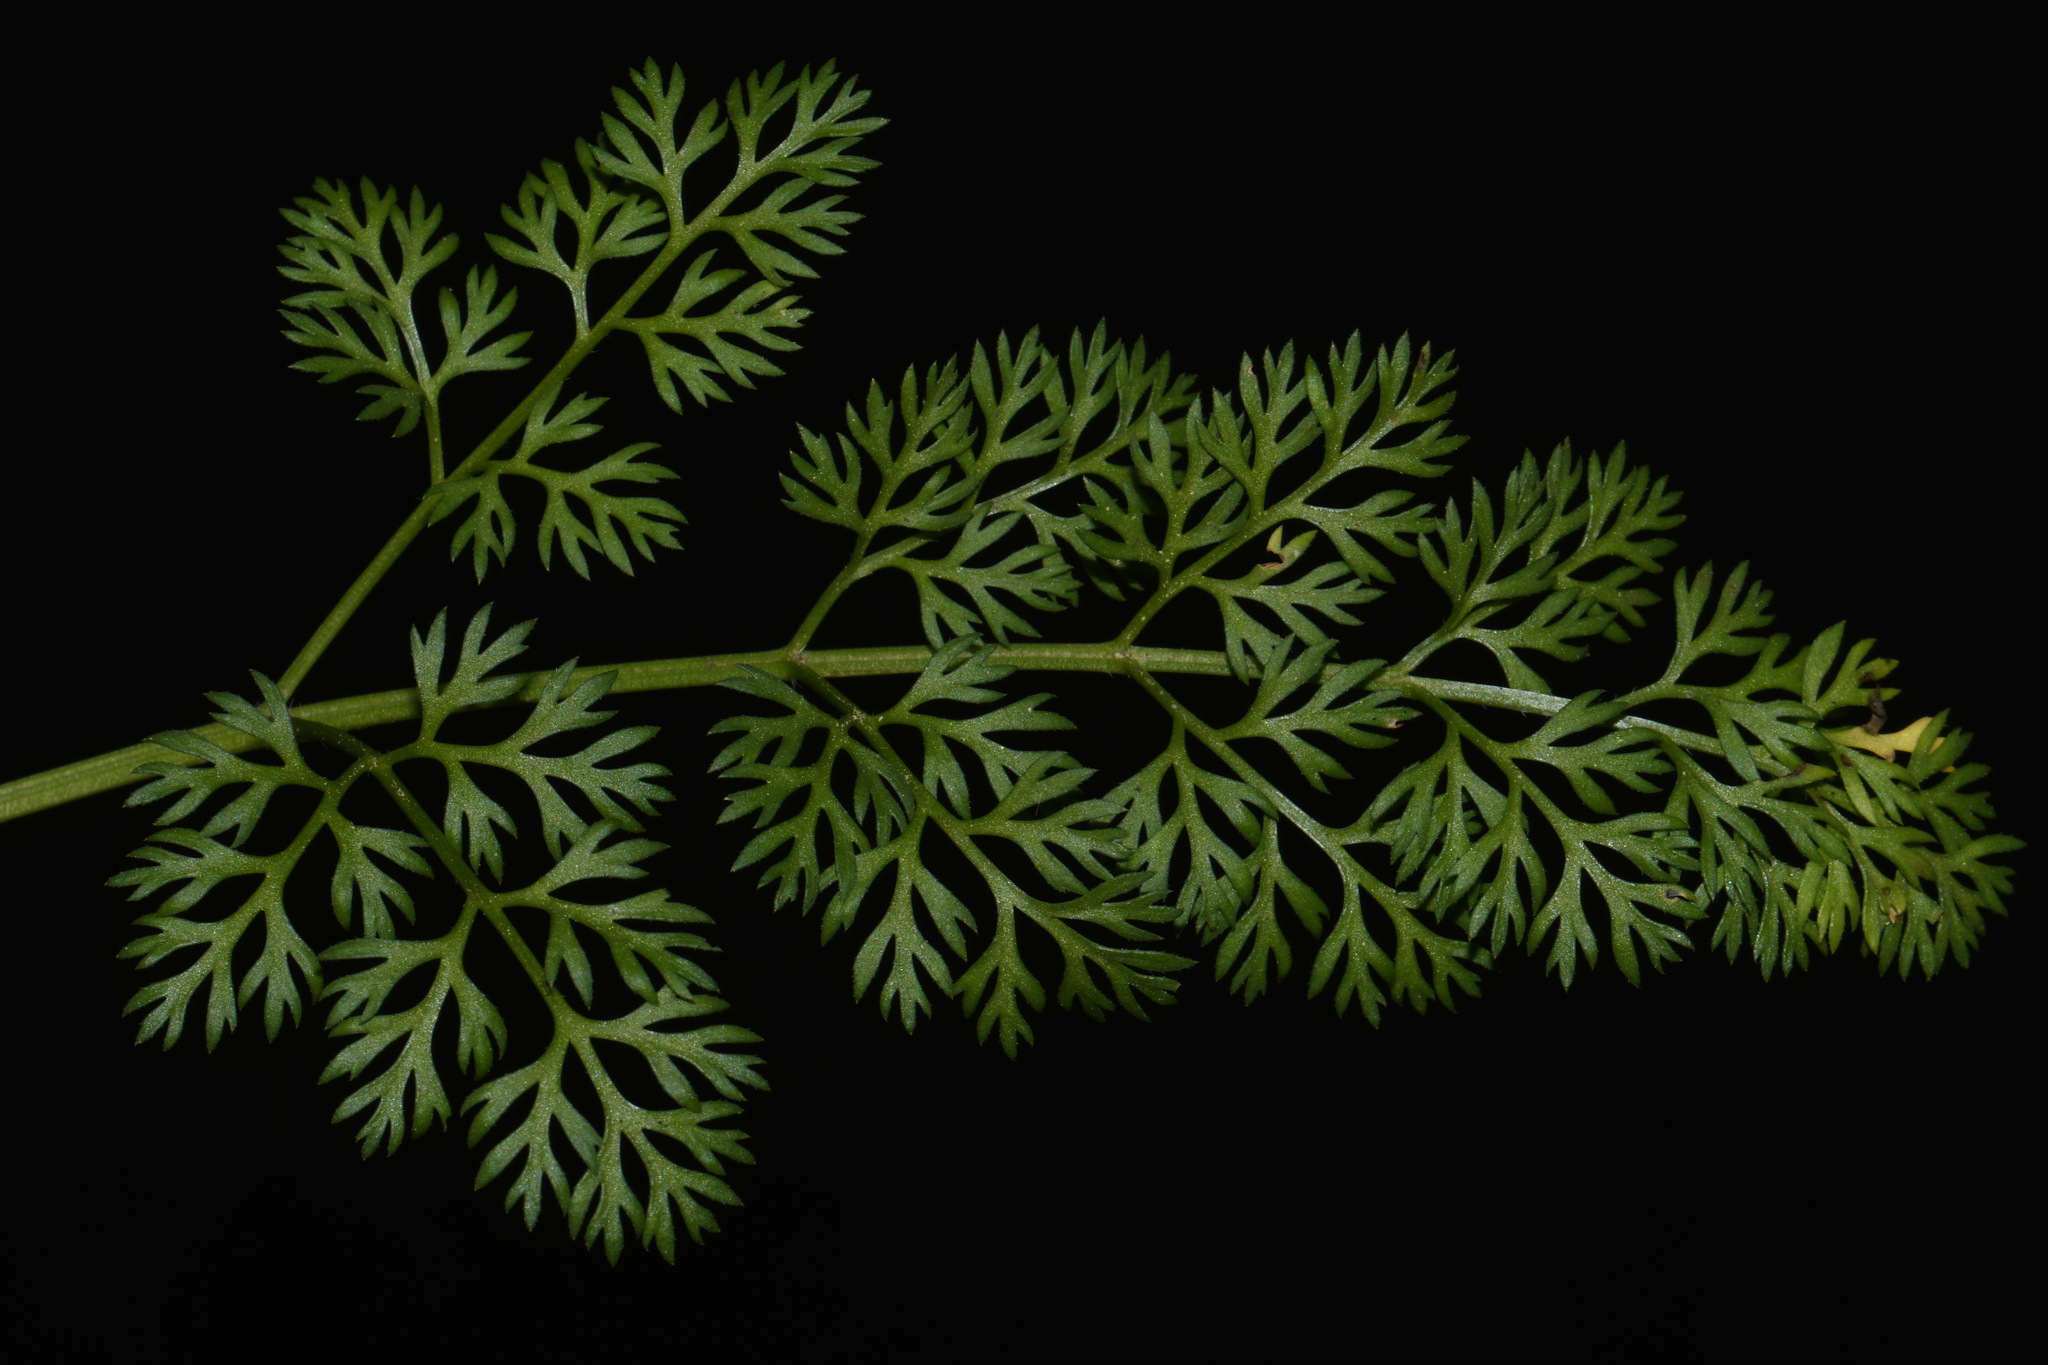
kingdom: Plantae
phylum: Tracheophyta
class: Magnoliopsida
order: Apiales
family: Apiaceae
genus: Scandix
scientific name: Scandix pecten-veneris
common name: Shepherd's-needle
